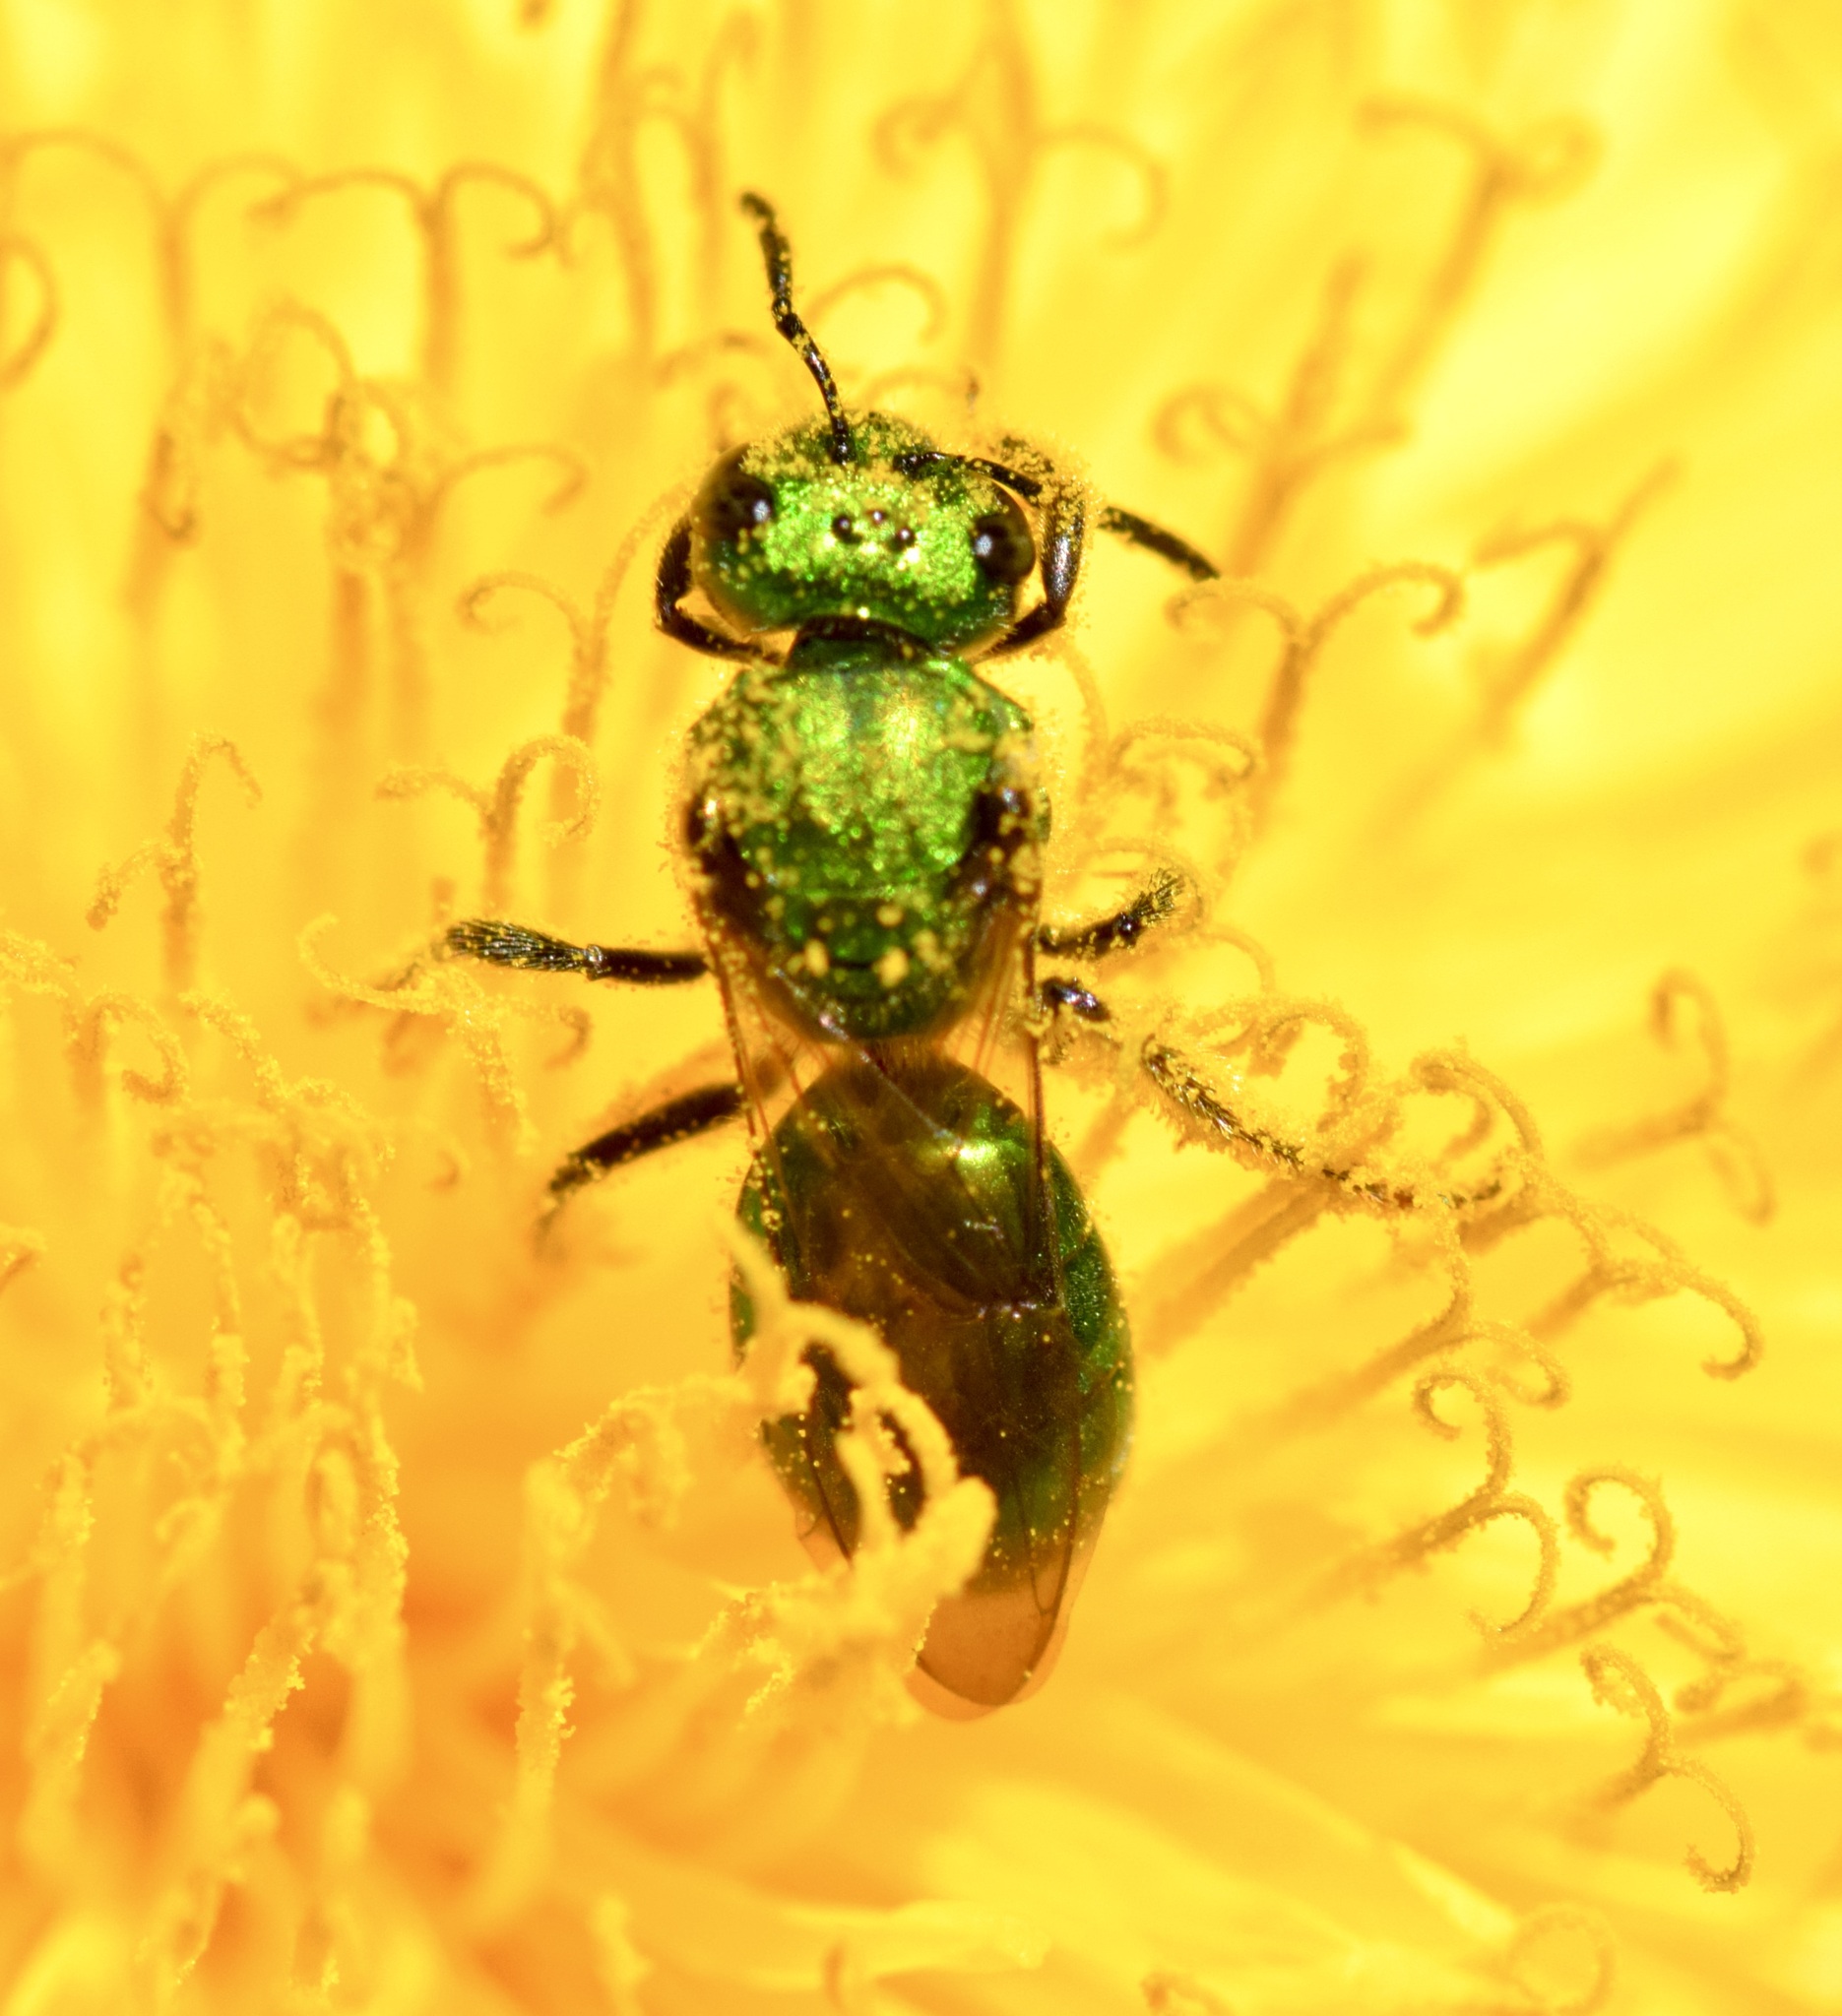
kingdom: Animalia
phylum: Arthropoda
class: Insecta
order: Hymenoptera
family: Halictidae
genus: Augochlora
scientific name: Augochlora pura
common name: Pure green sweat bee
